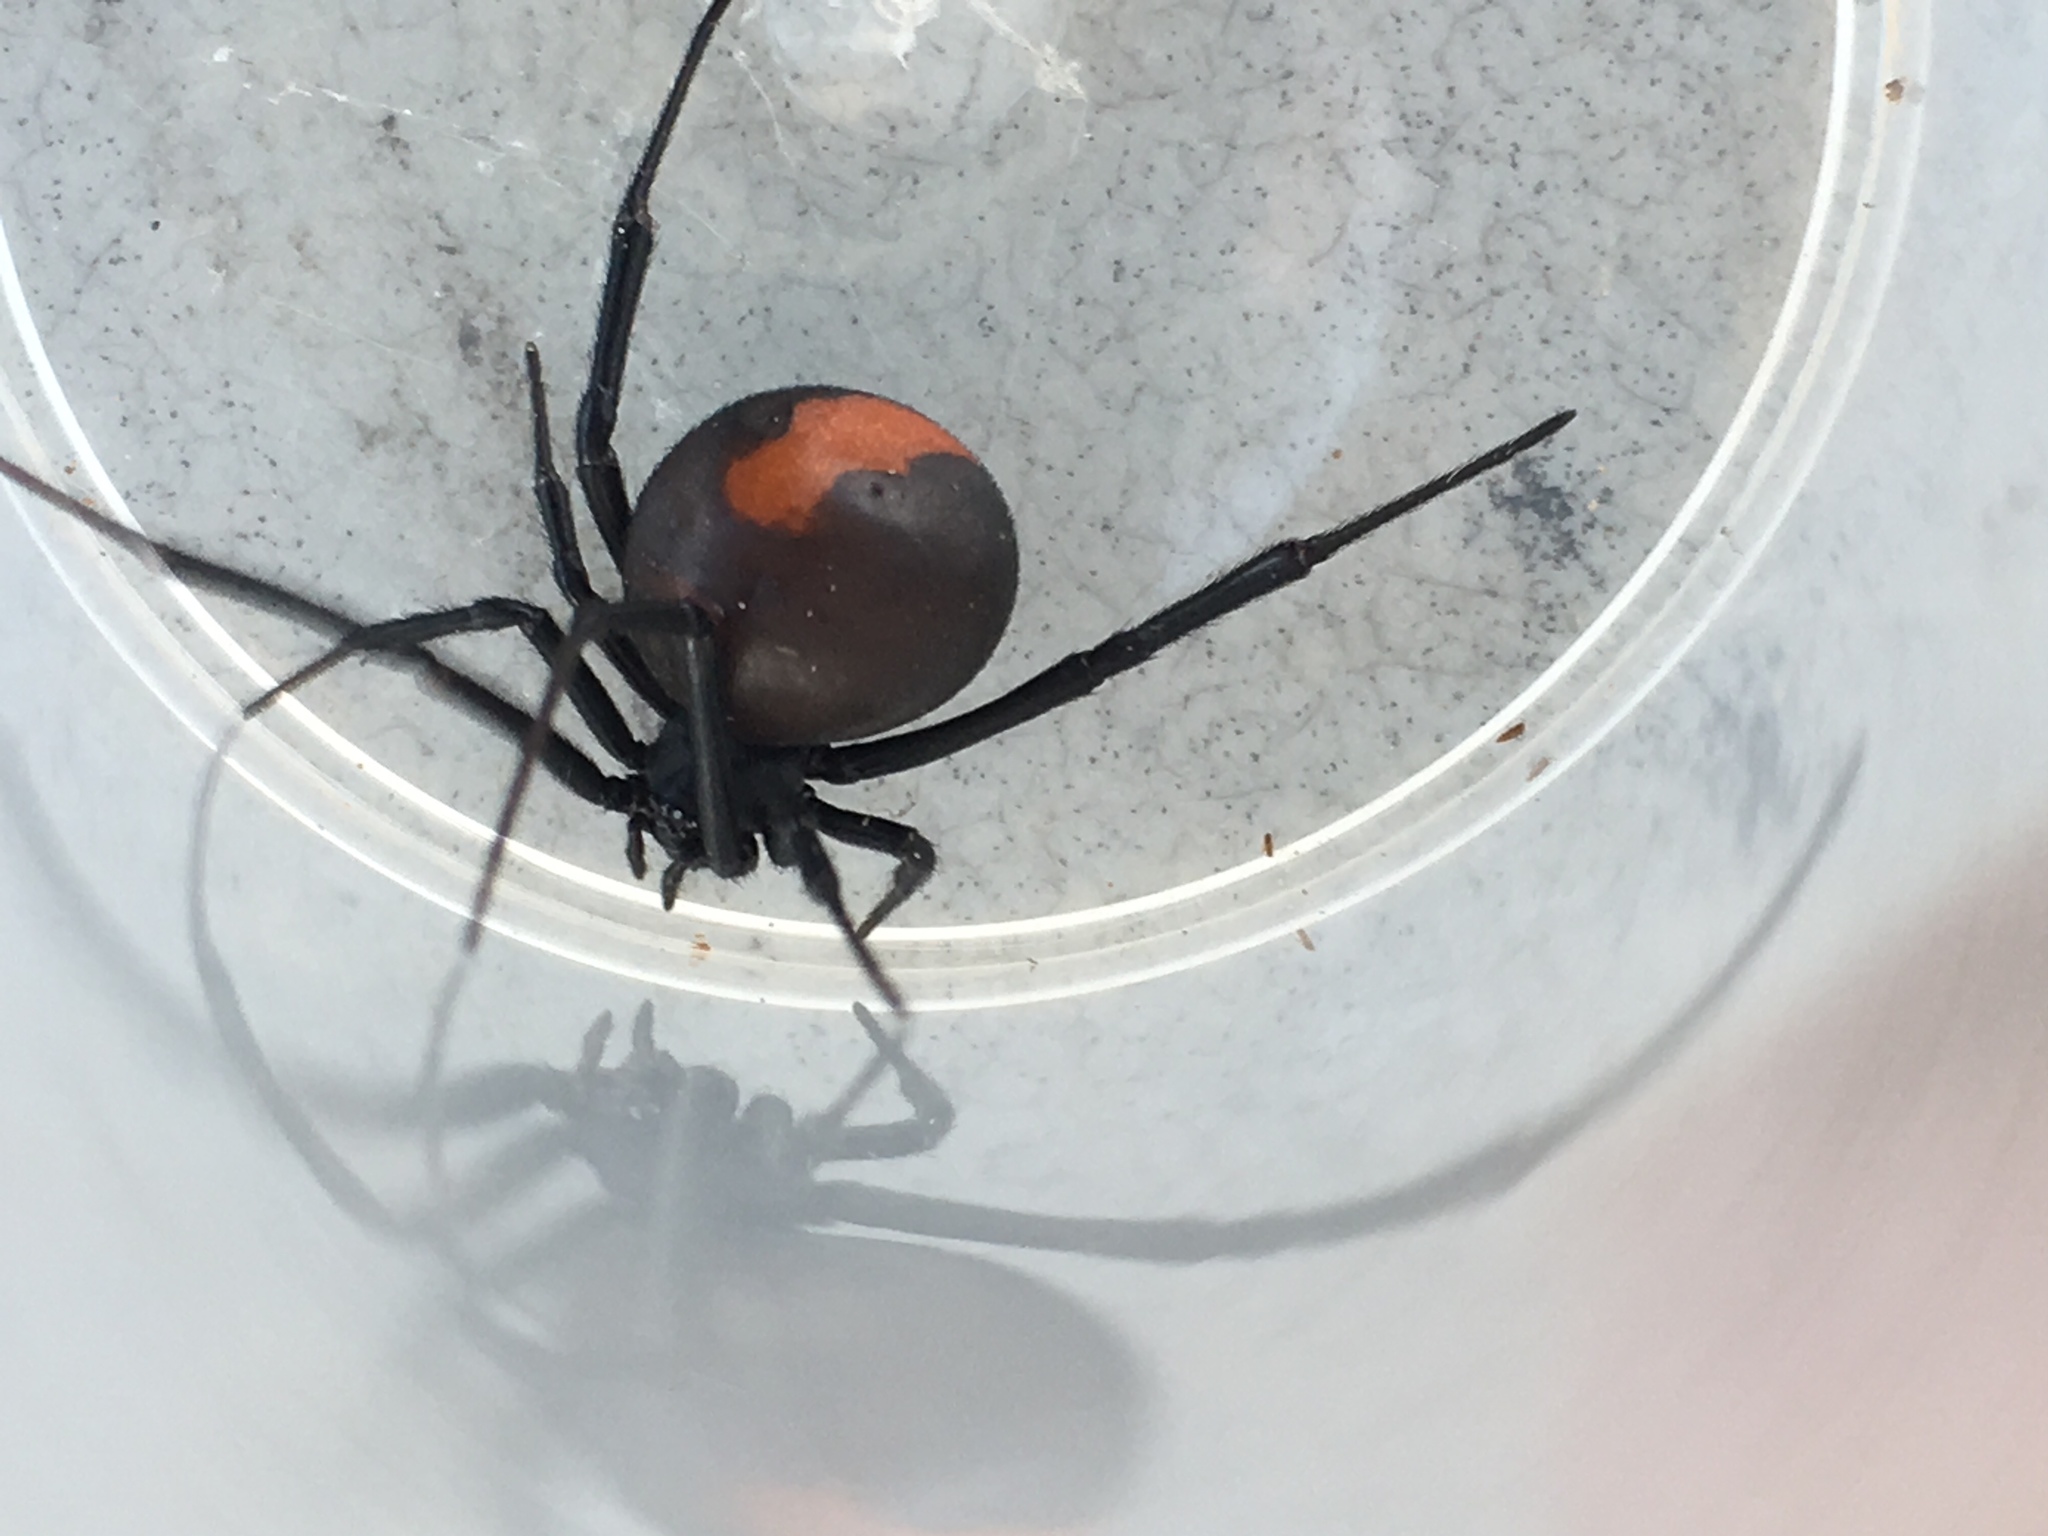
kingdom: Animalia
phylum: Arthropoda
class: Arachnida
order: Araneae
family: Theridiidae
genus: Latrodectus
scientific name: Latrodectus hasselti
